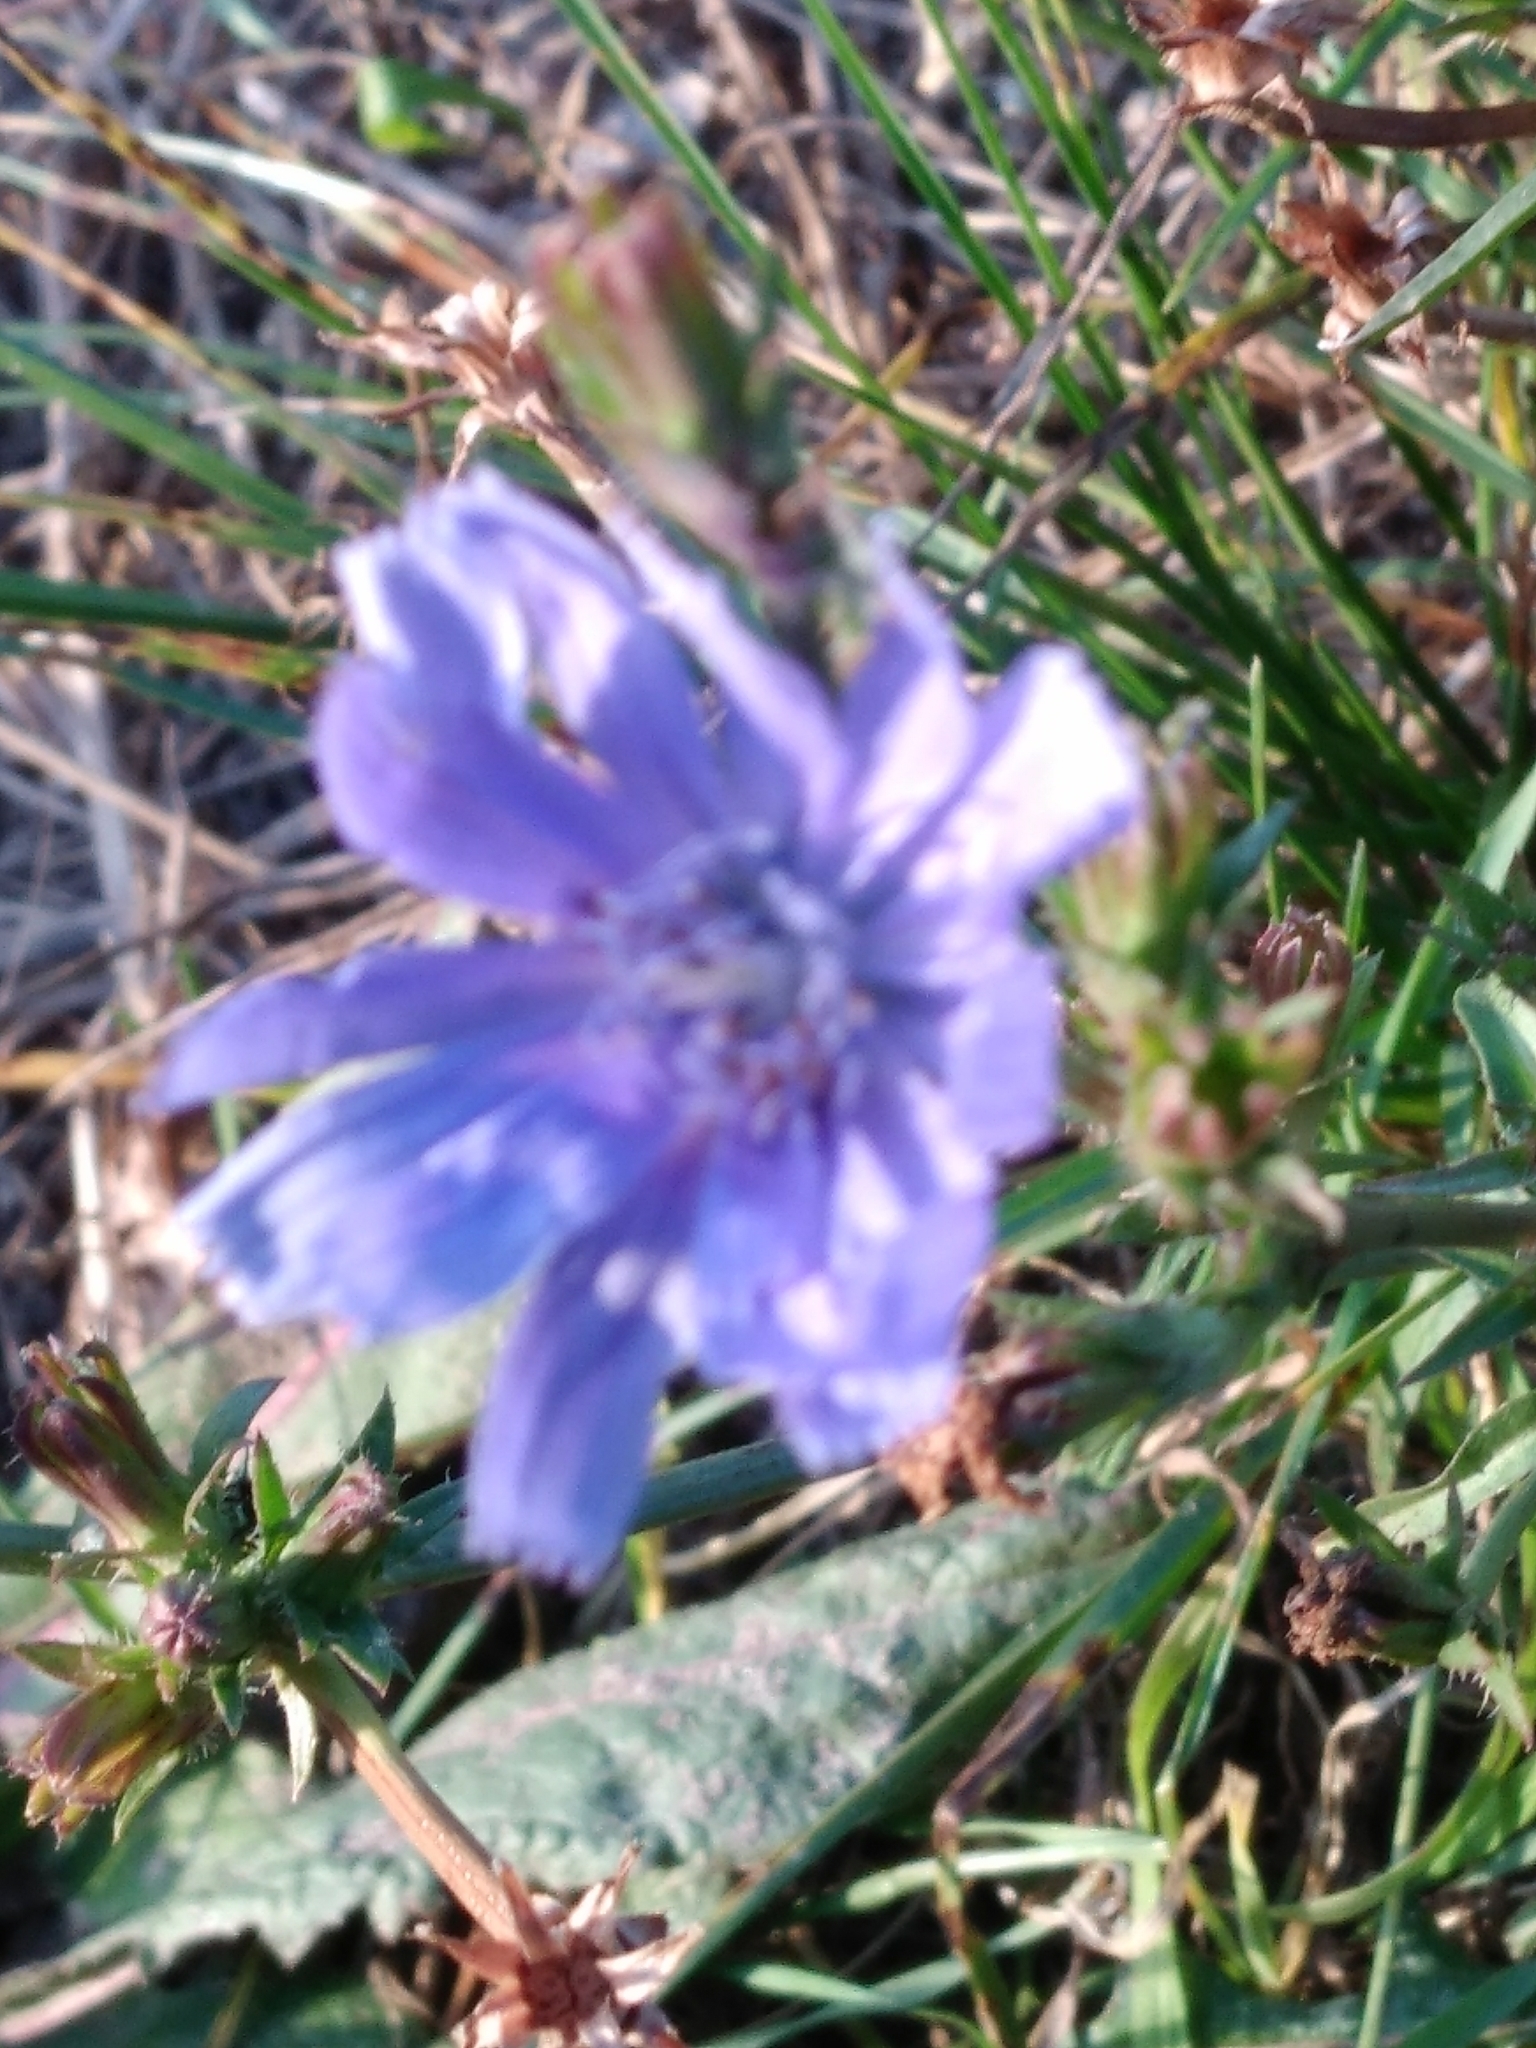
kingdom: Plantae
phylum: Tracheophyta
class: Magnoliopsida
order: Asterales
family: Asteraceae
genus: Cichorium
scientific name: Cichorium intybus
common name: Chicory
